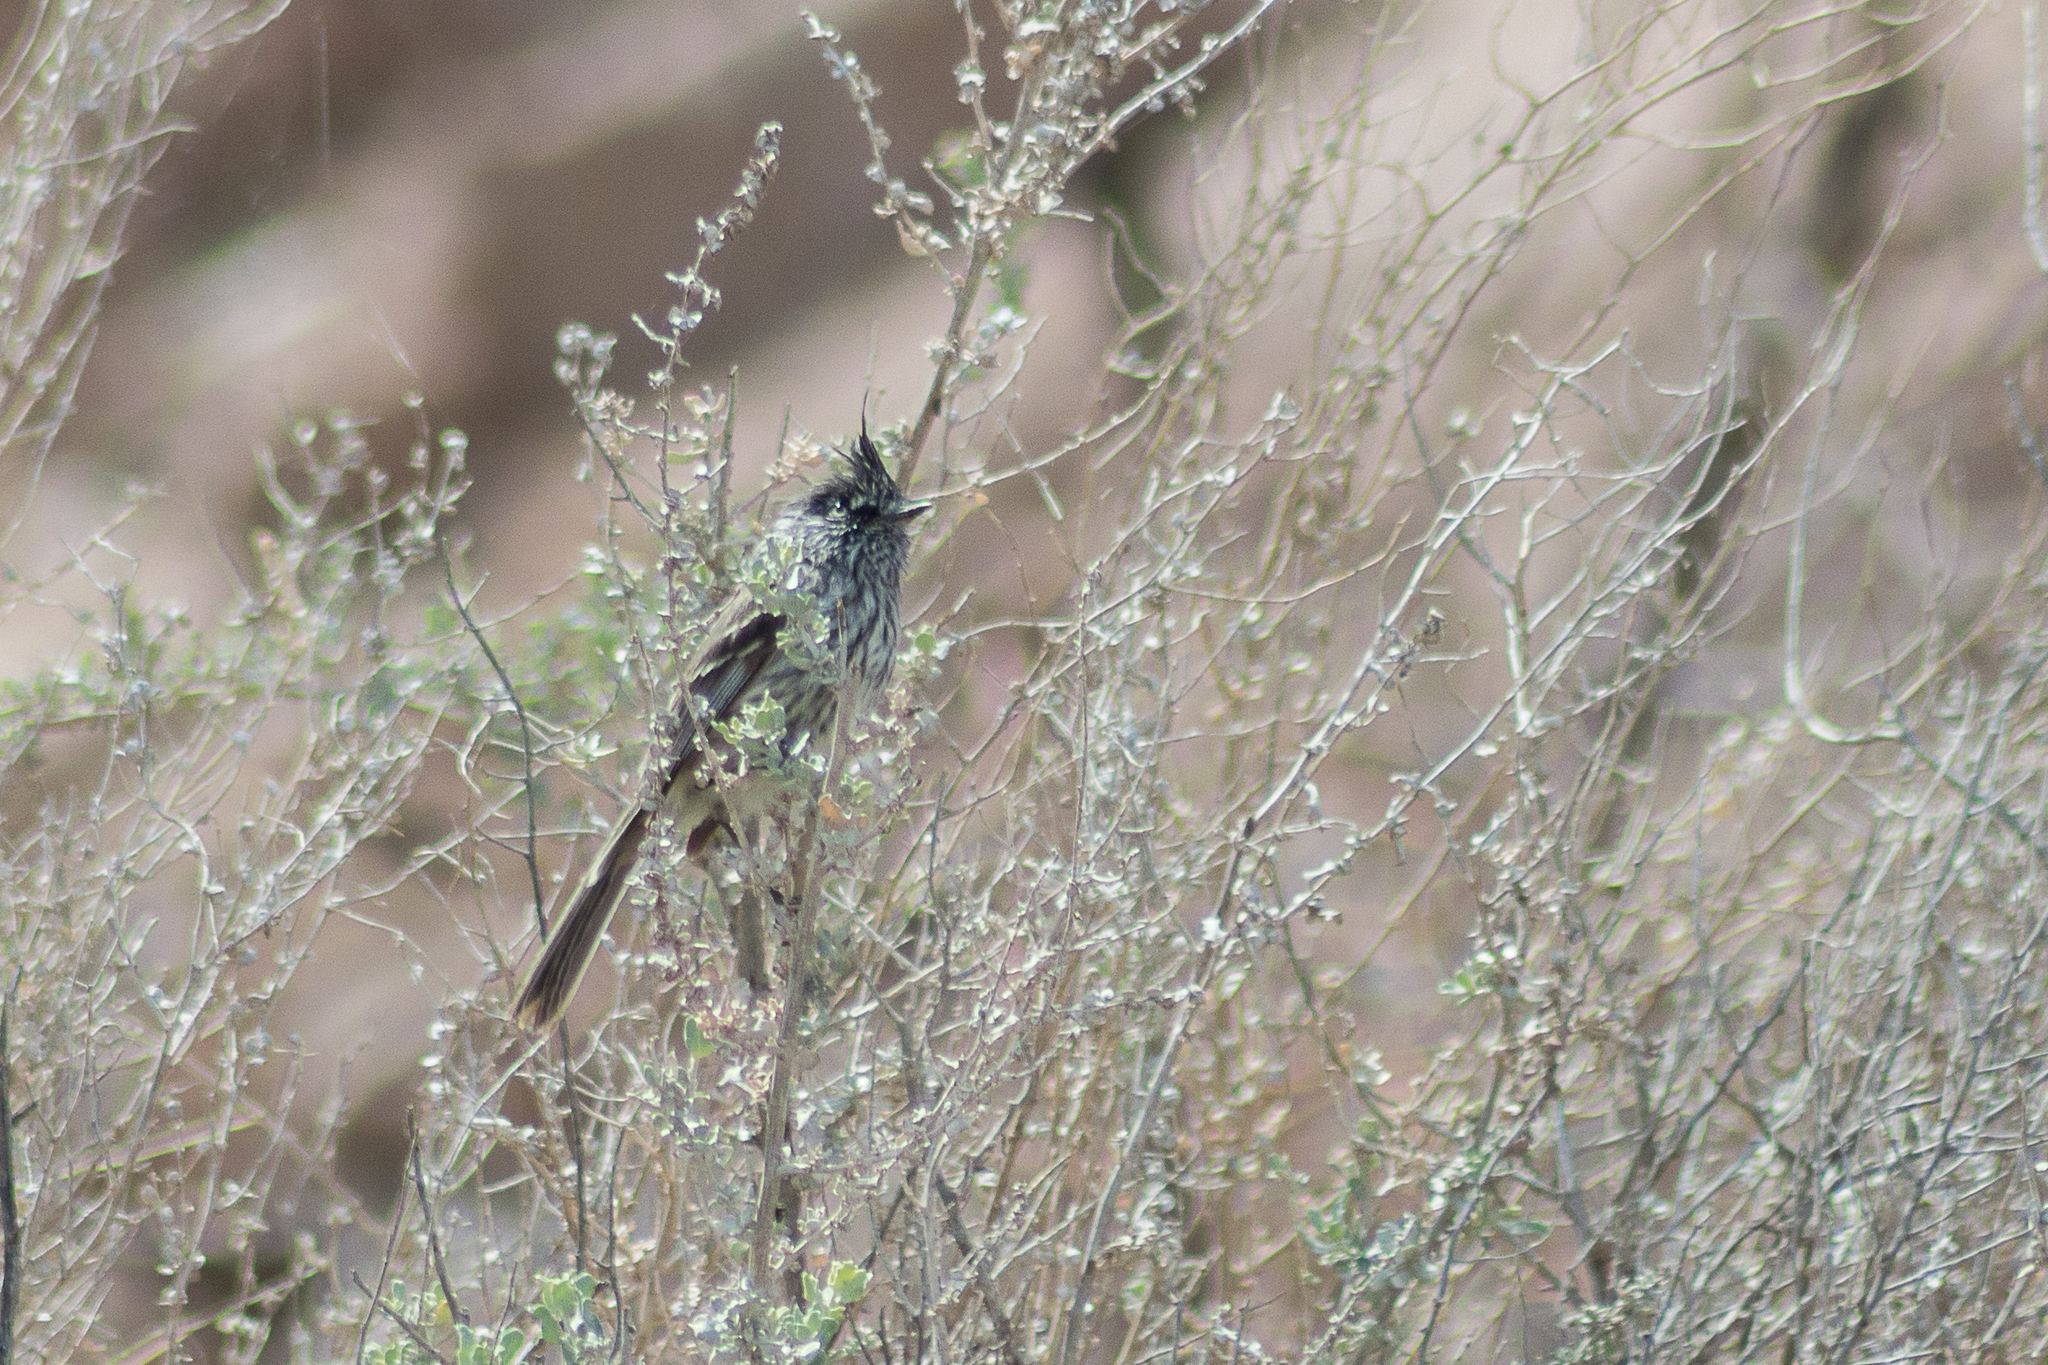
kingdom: Animalia
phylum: Chordata
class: Aves
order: Passeriformes
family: Tyrannidae
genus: Anairetes
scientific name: Anairetes parulus
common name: Tufted tit-tyrant
